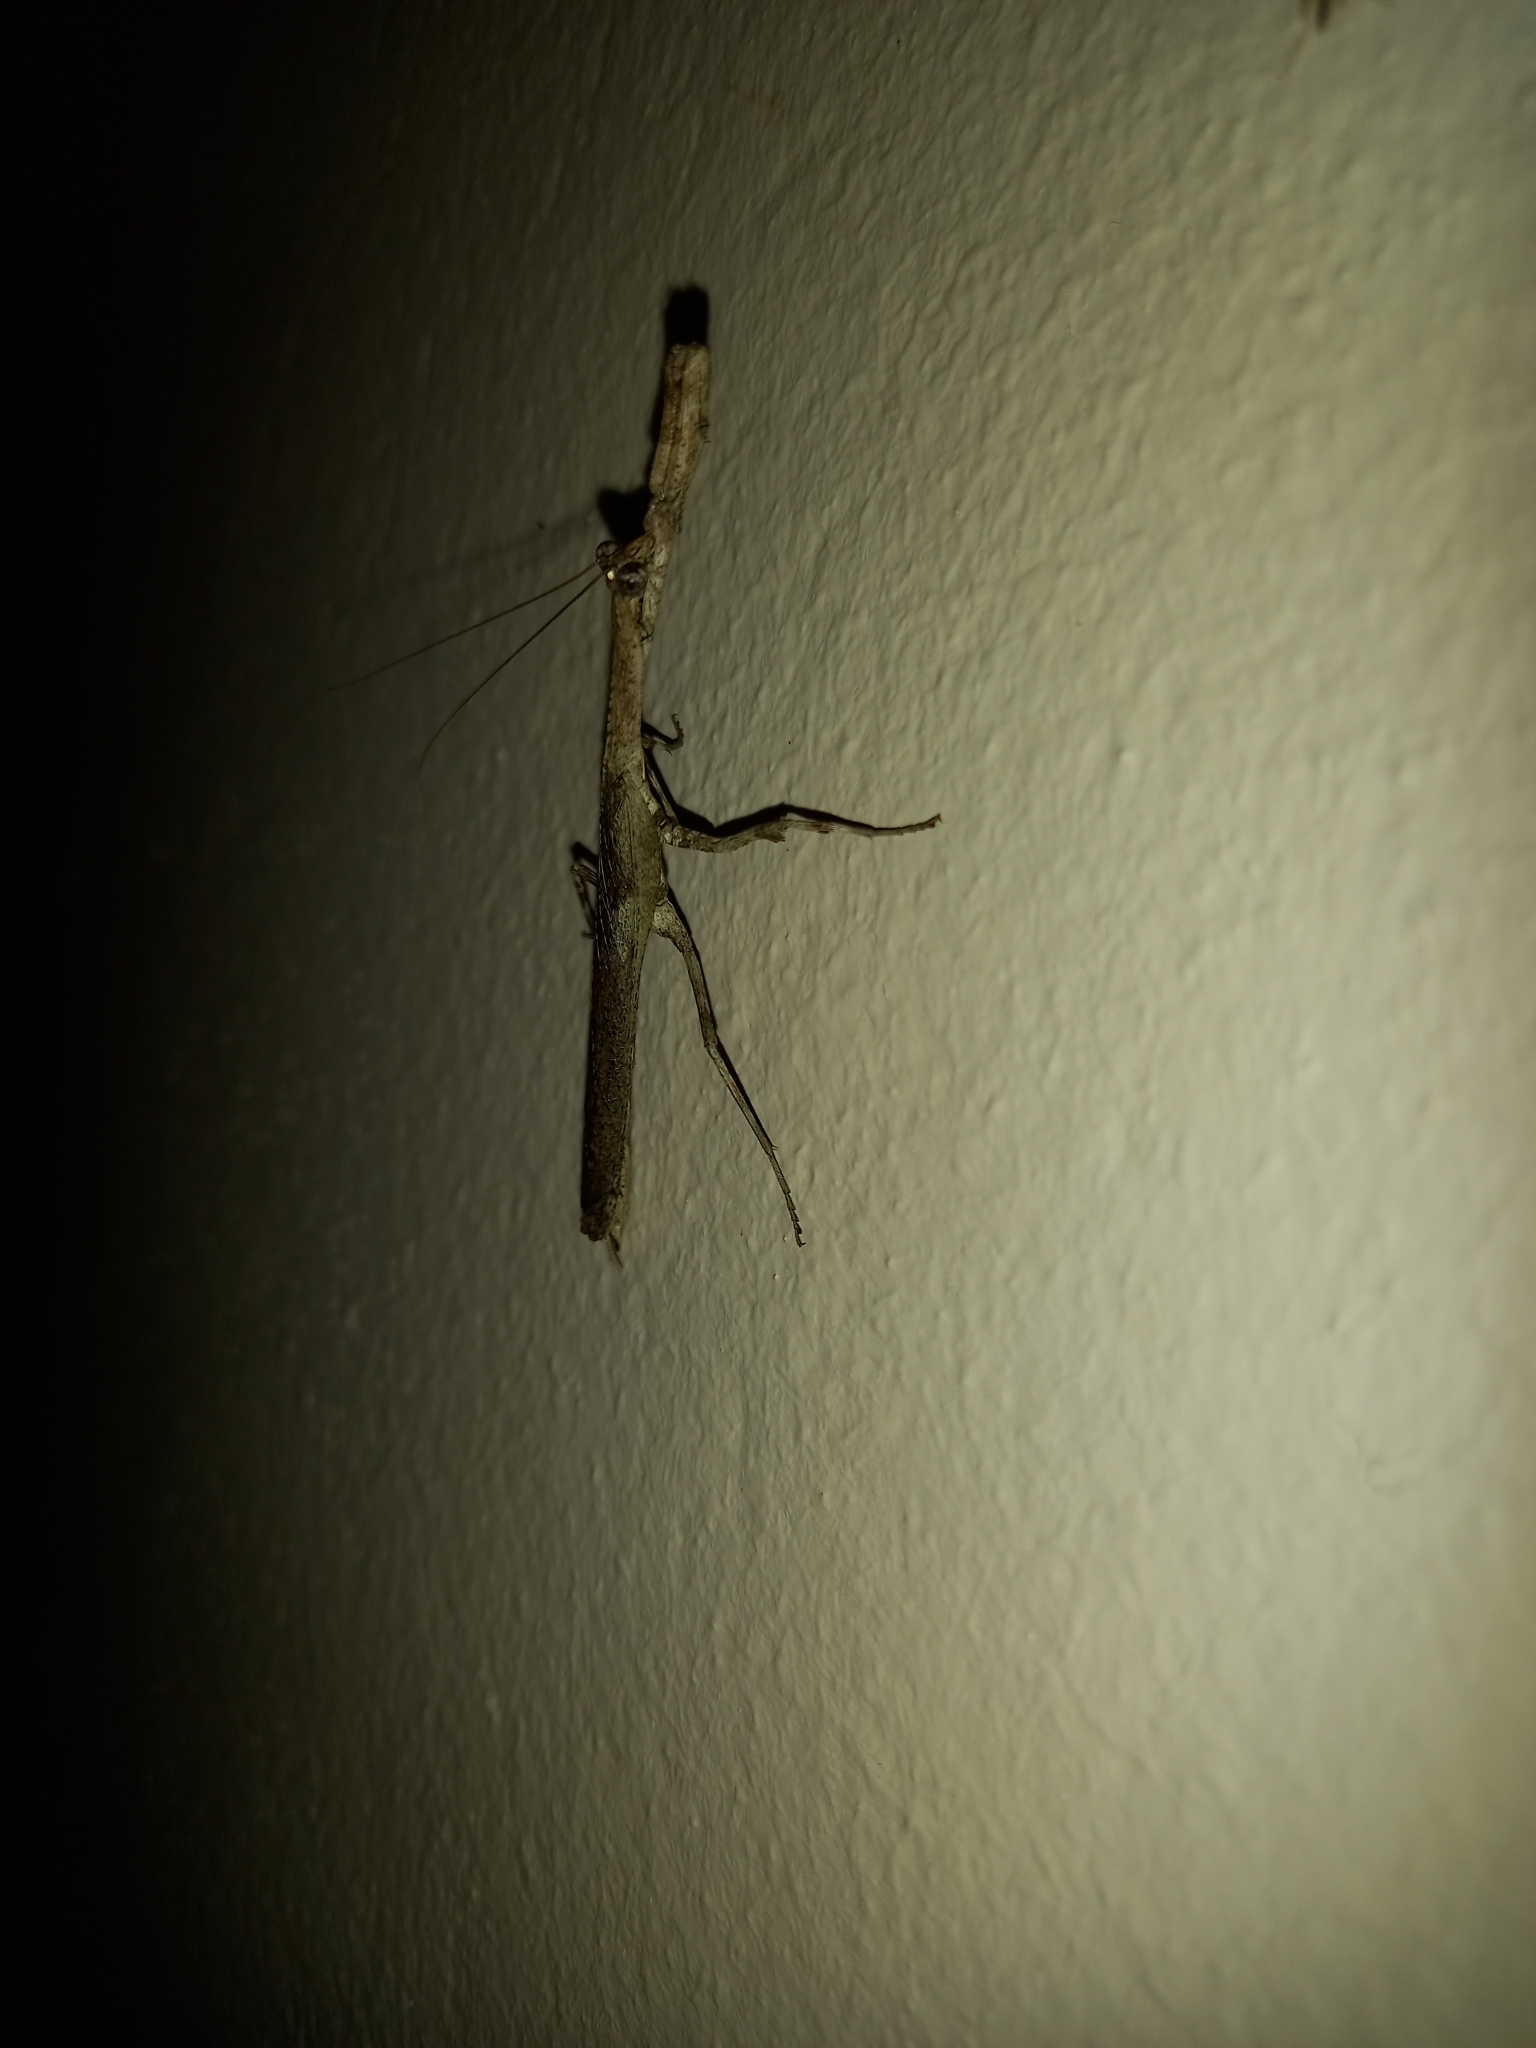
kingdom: Animalia
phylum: Arthropoda
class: Insecta
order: Mantodea
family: Deroplatyidae
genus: Popa
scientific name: Popa spurca
